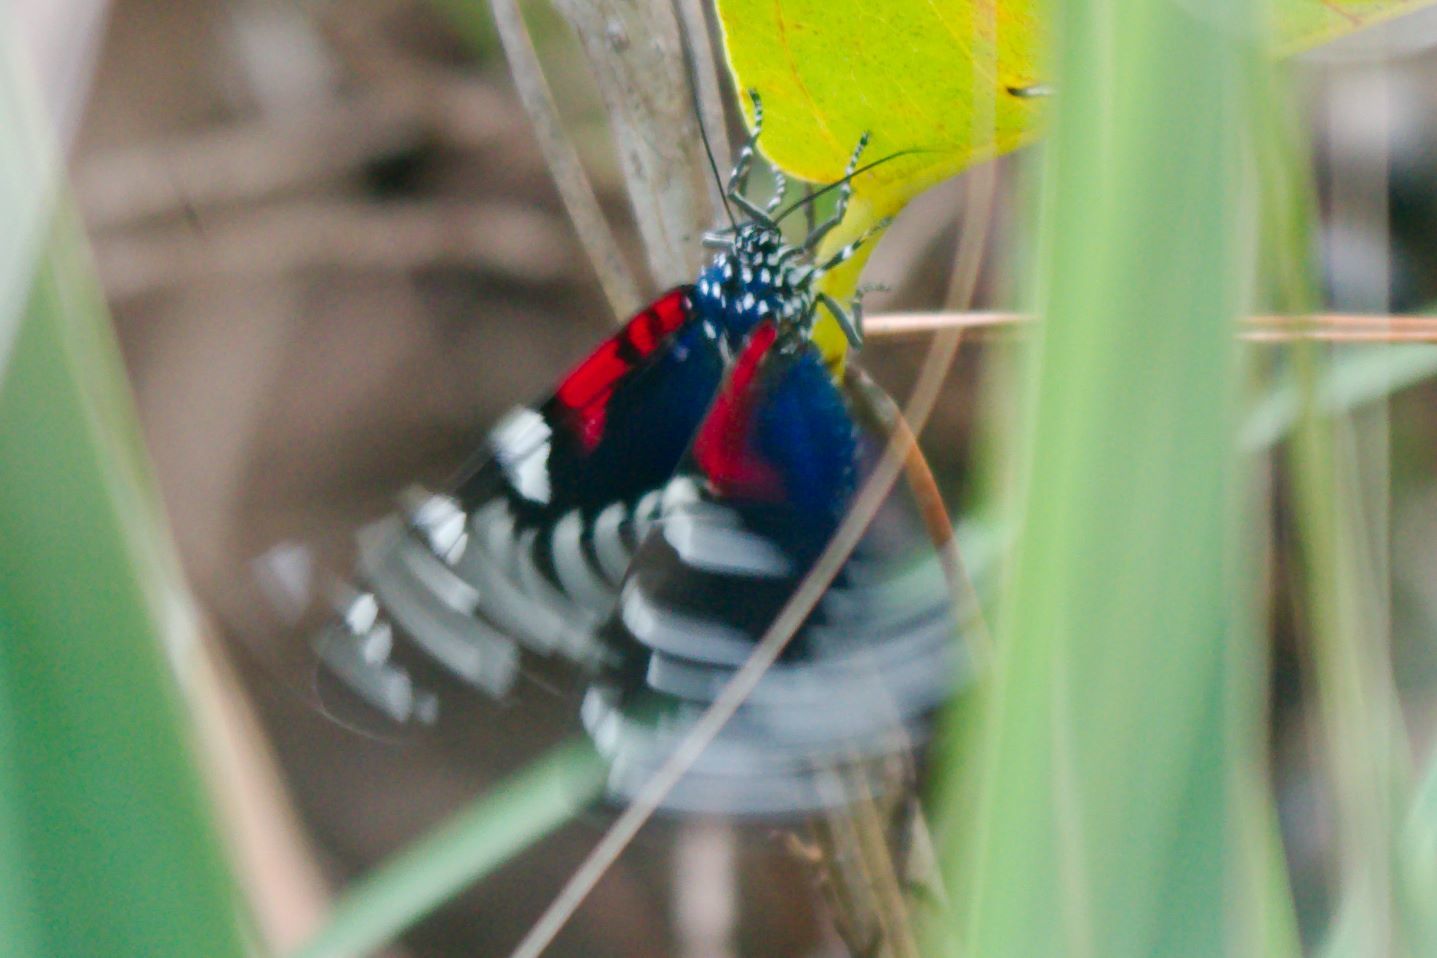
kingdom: Animalia
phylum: Arthropoda
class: Insecta
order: Lepidoptera
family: Erebidae
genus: Composia
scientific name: Composia fidelissima
